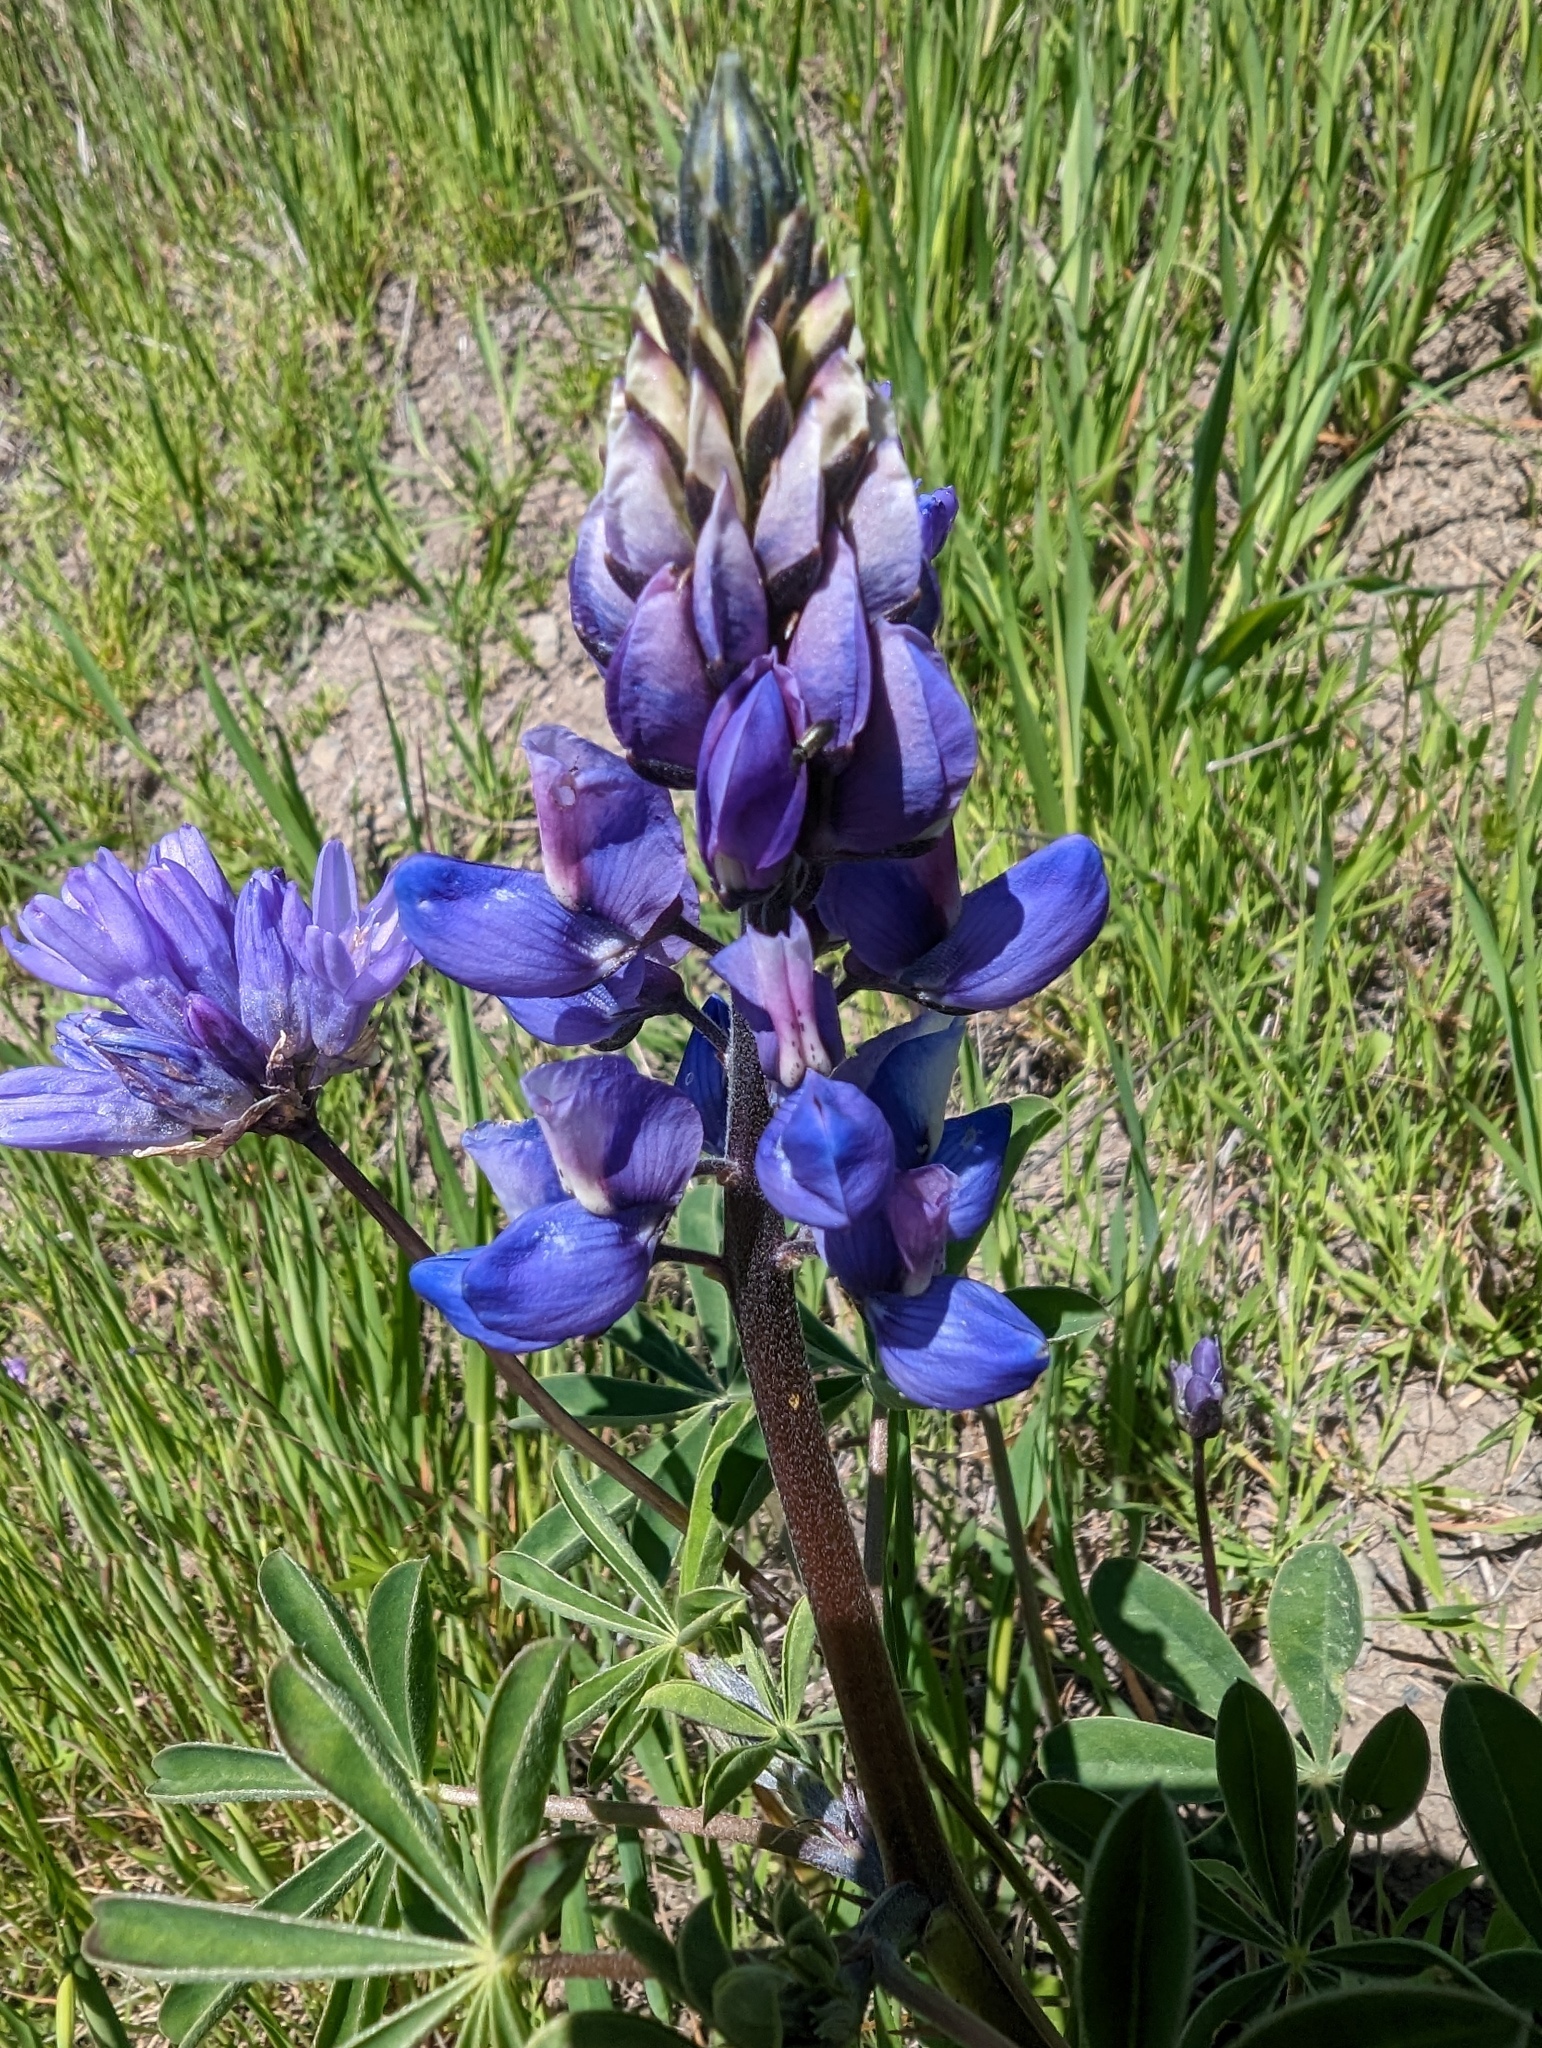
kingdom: Plantae
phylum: Tracheophyta
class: Magnoliopsida
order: Fabales
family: Fabaceae
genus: Lupinus
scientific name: Lupinus succulentus
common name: Arroyo lupine
